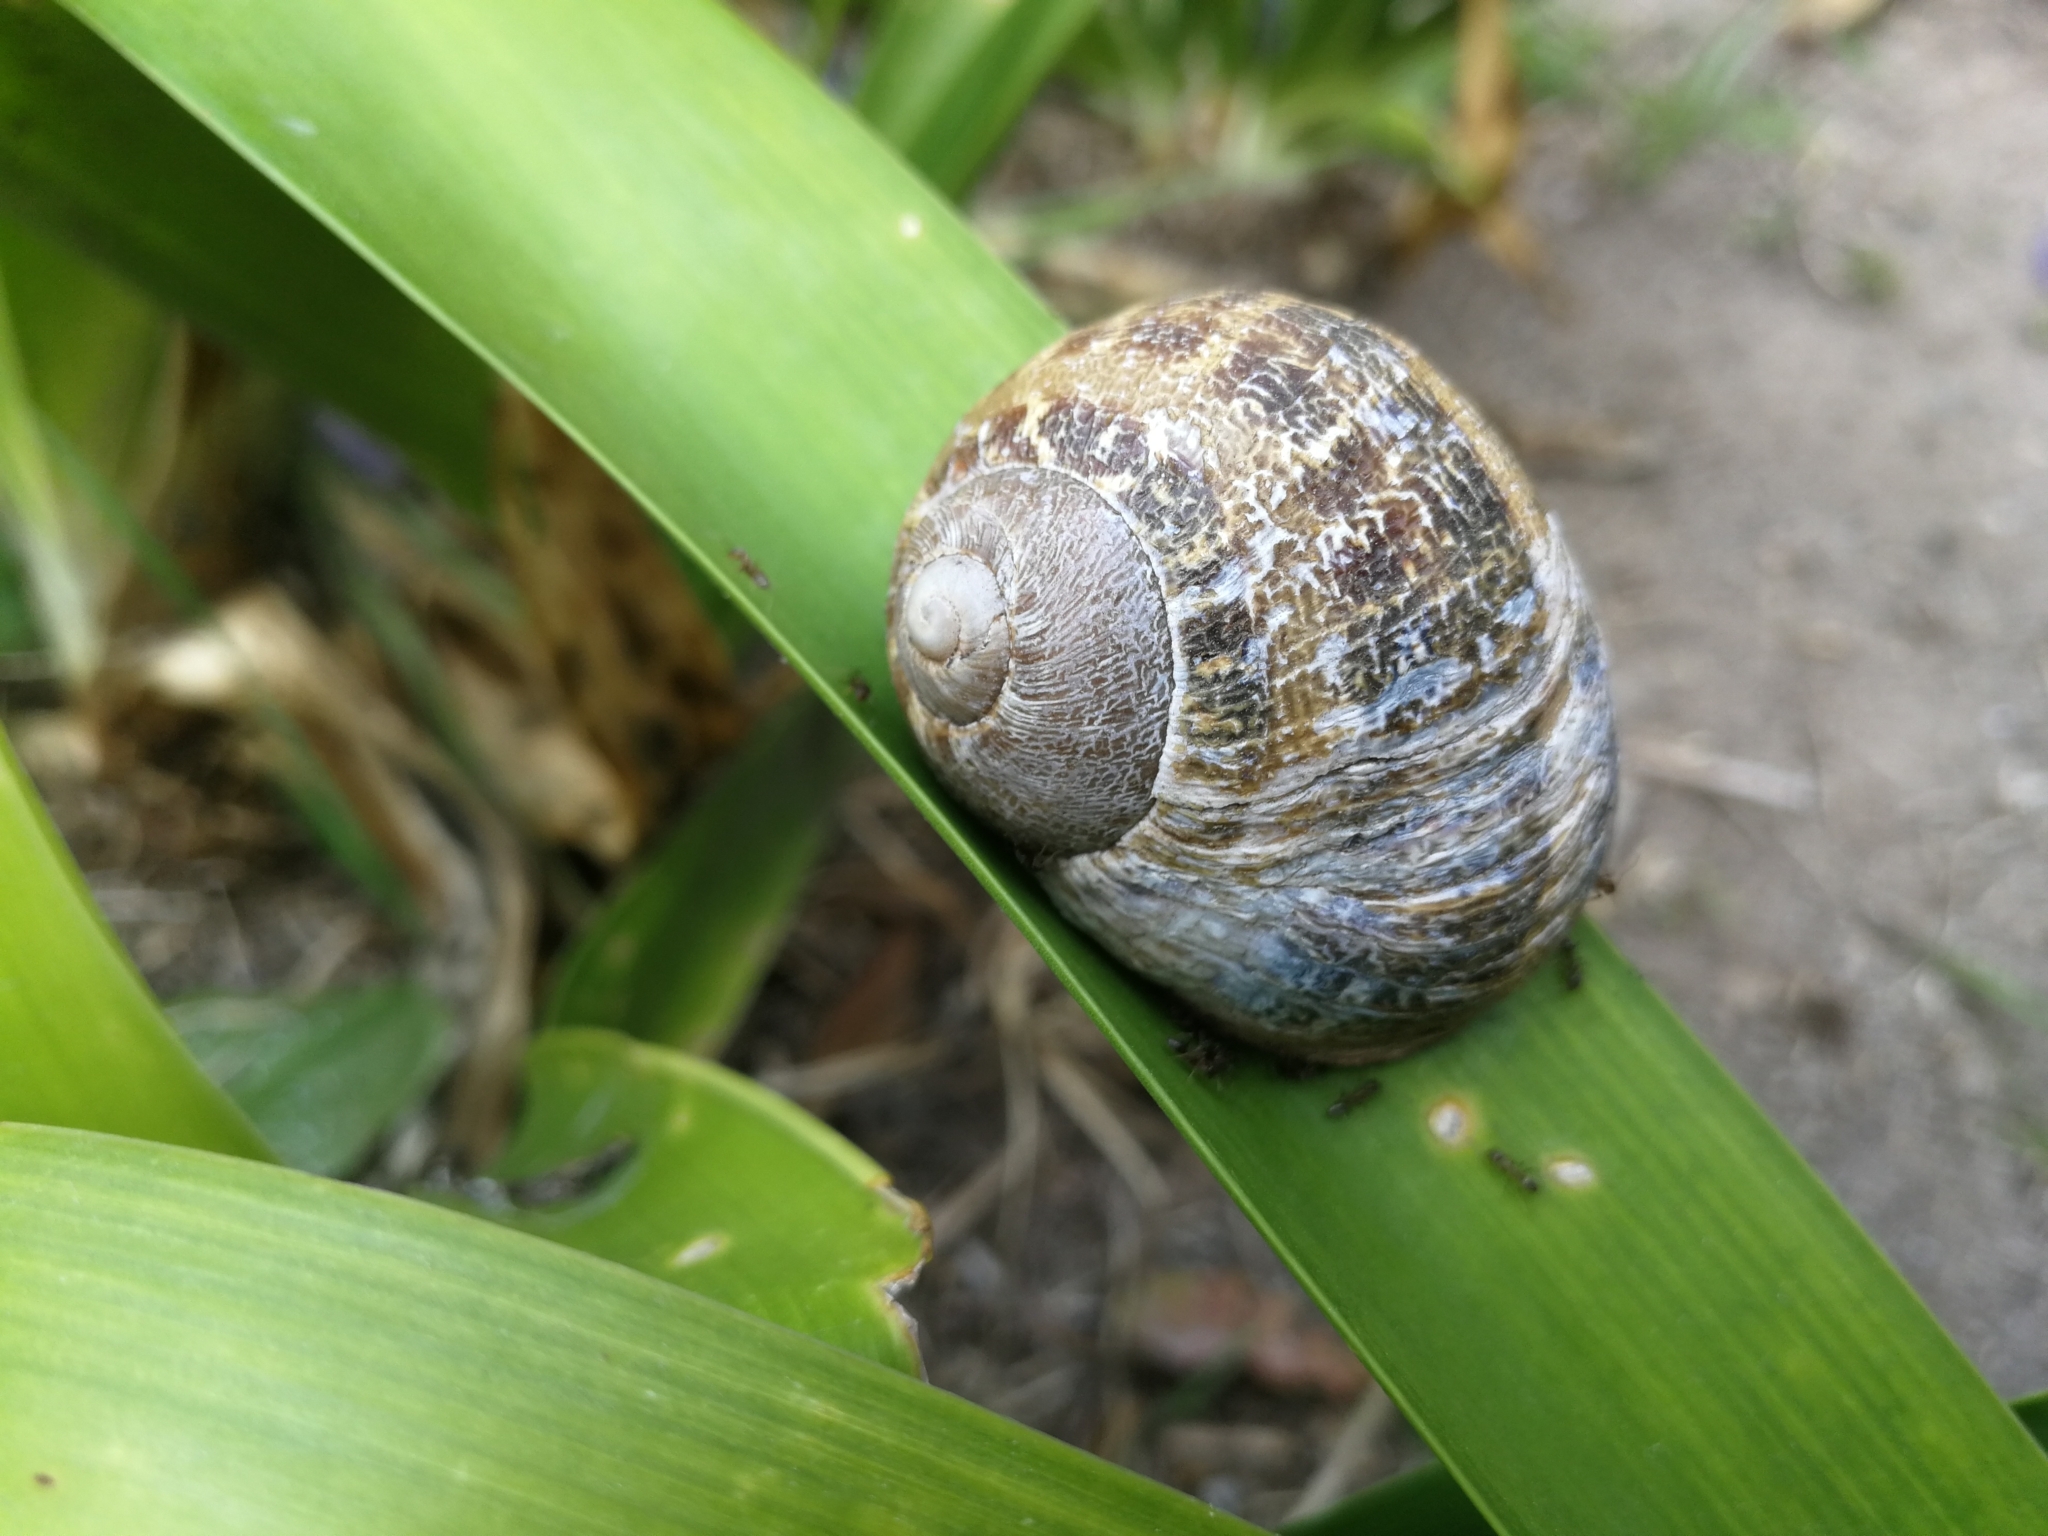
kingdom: Animalia
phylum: Mollusca
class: Gastropoda
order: Stylommatophora
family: Helicidae
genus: Cornu
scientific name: Cornu aspersum
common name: Brown garden snail
